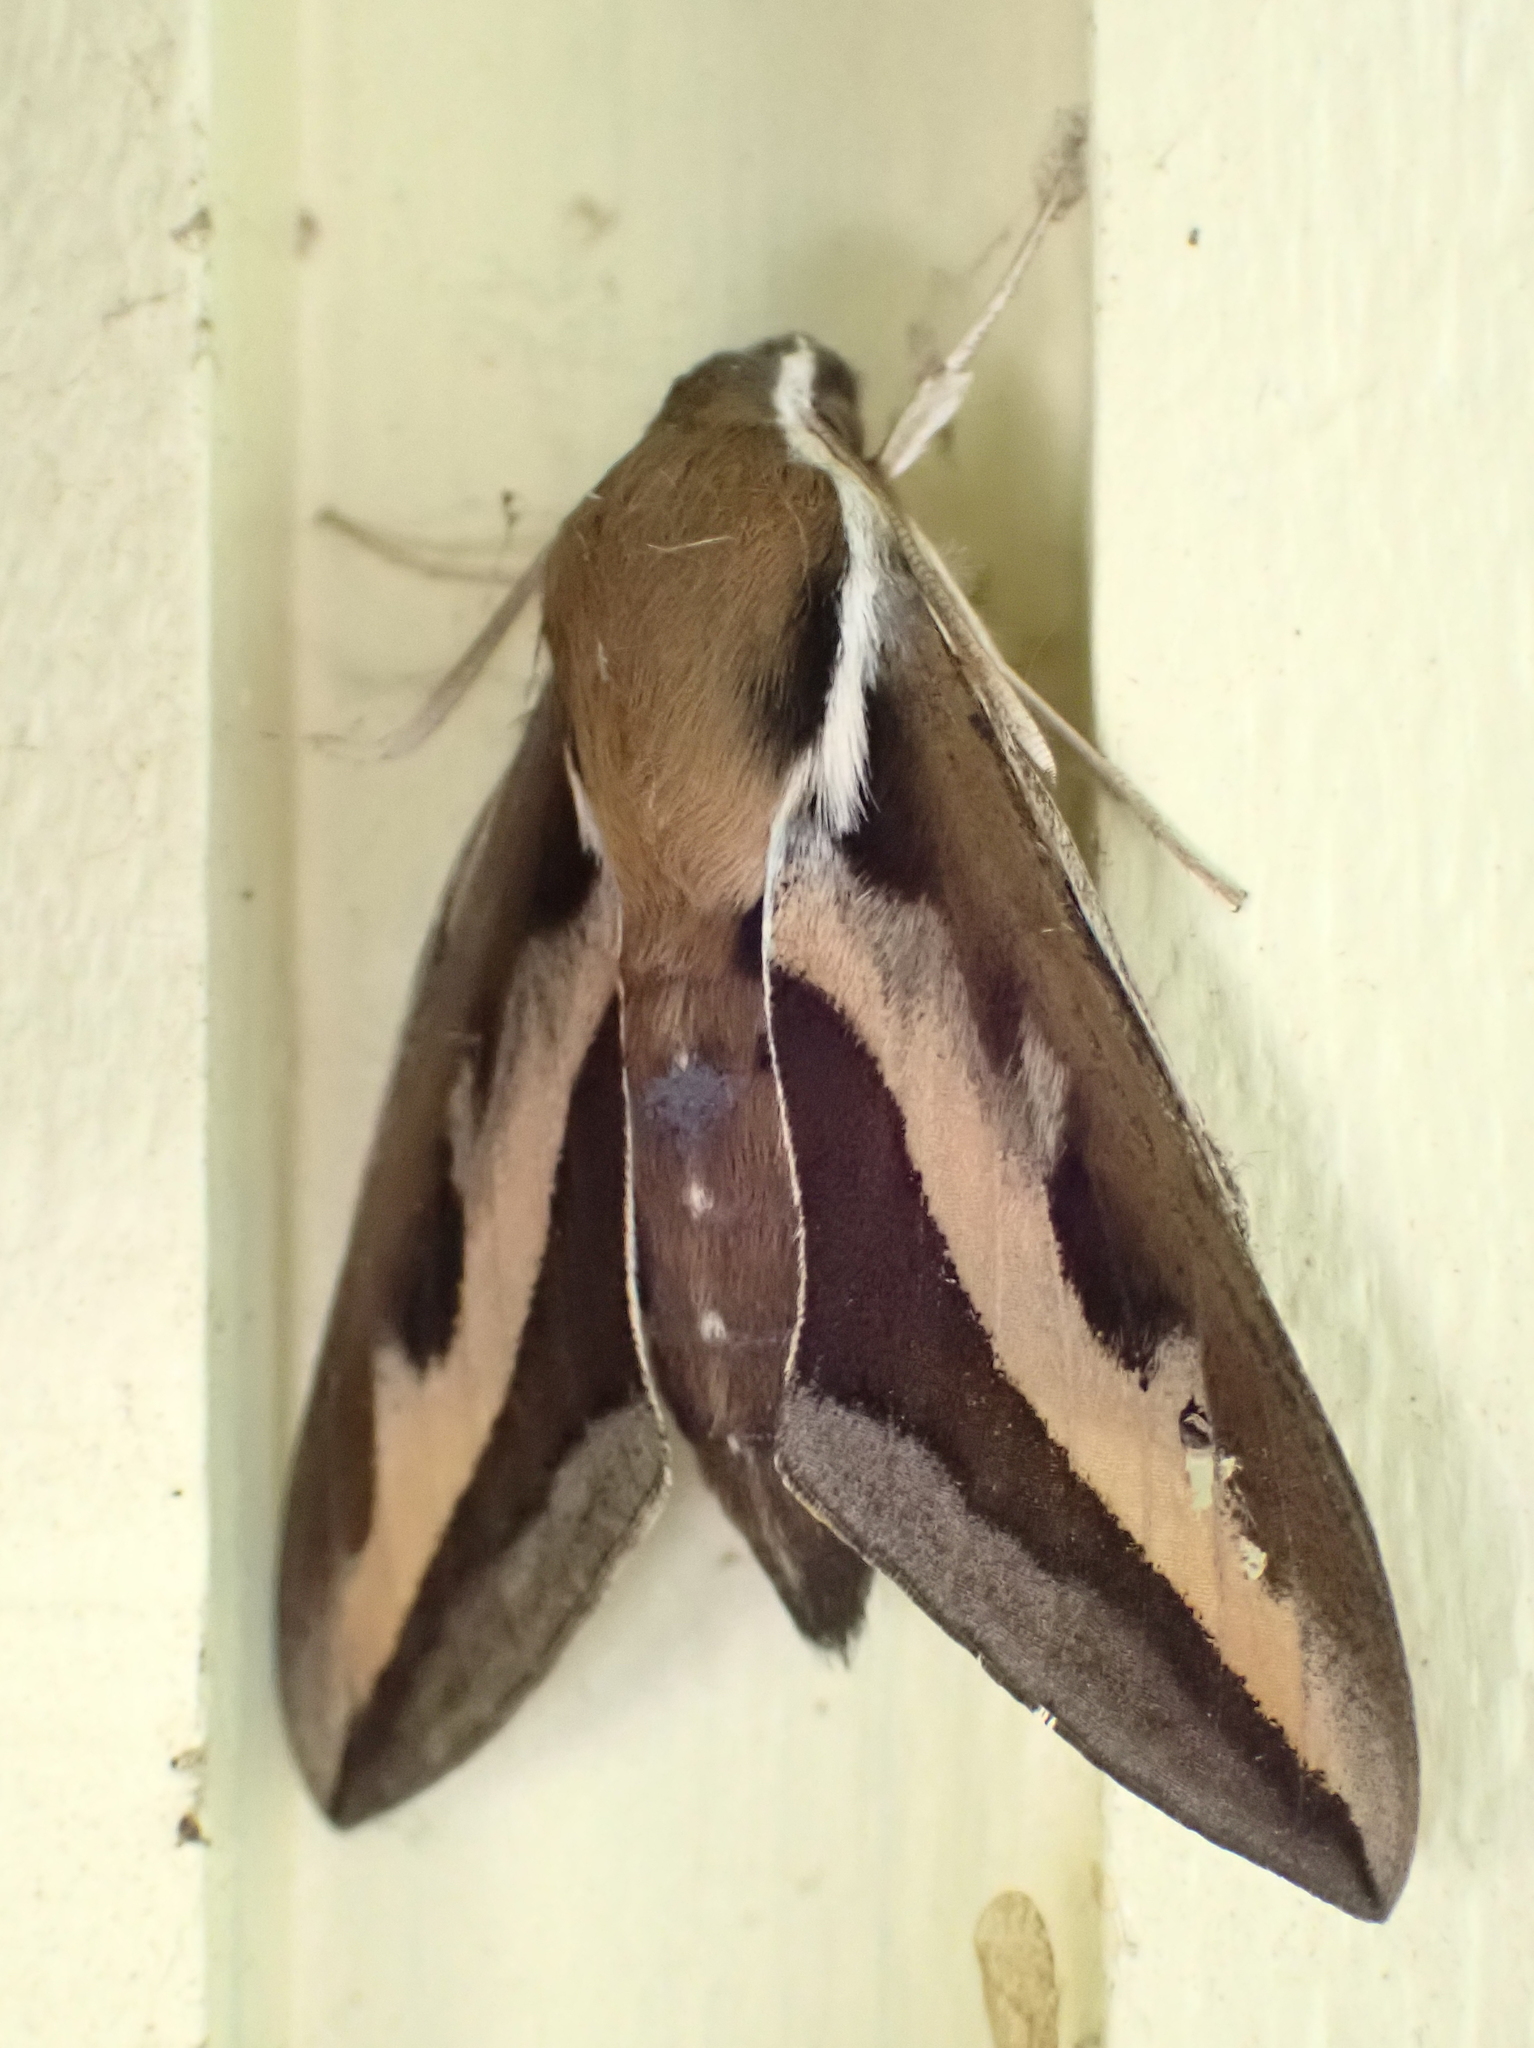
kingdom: Animalia
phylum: Arthropoda
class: Insecta
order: Lepidoptera
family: Sphingidae
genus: Hyles
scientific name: Hyles gallii
